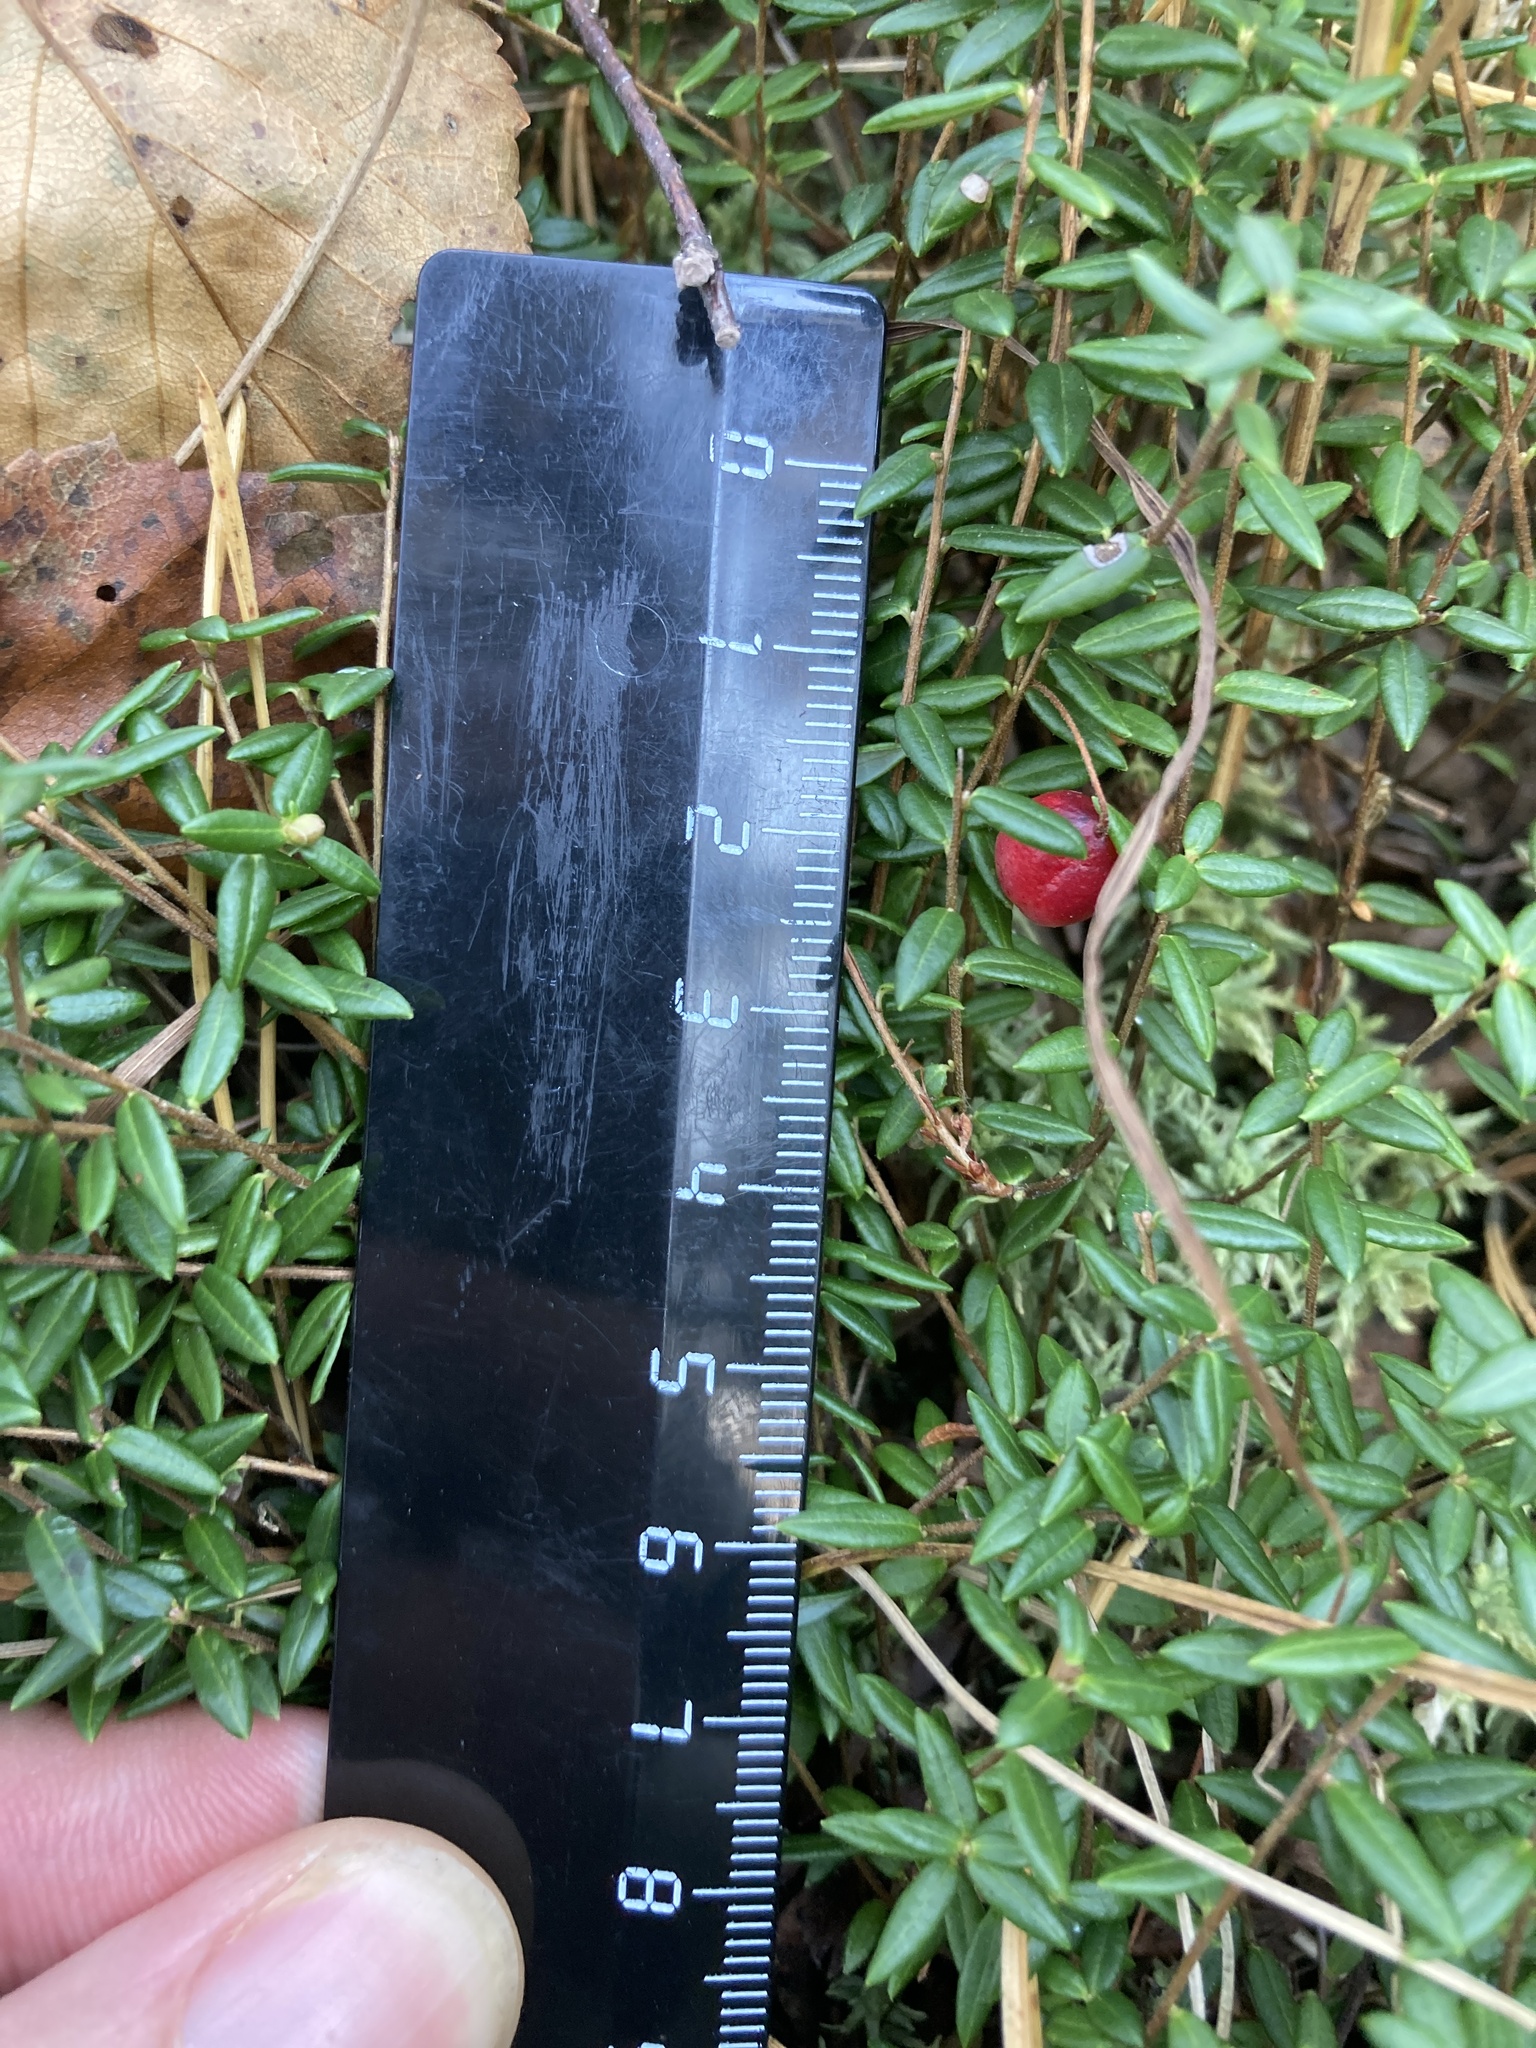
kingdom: Plantae
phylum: Tracheophyta
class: Magnoliopsida
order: Ericales
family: Ericaceae
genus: Vaccinium
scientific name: Vaccinium oxycoccos
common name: Cranberry
